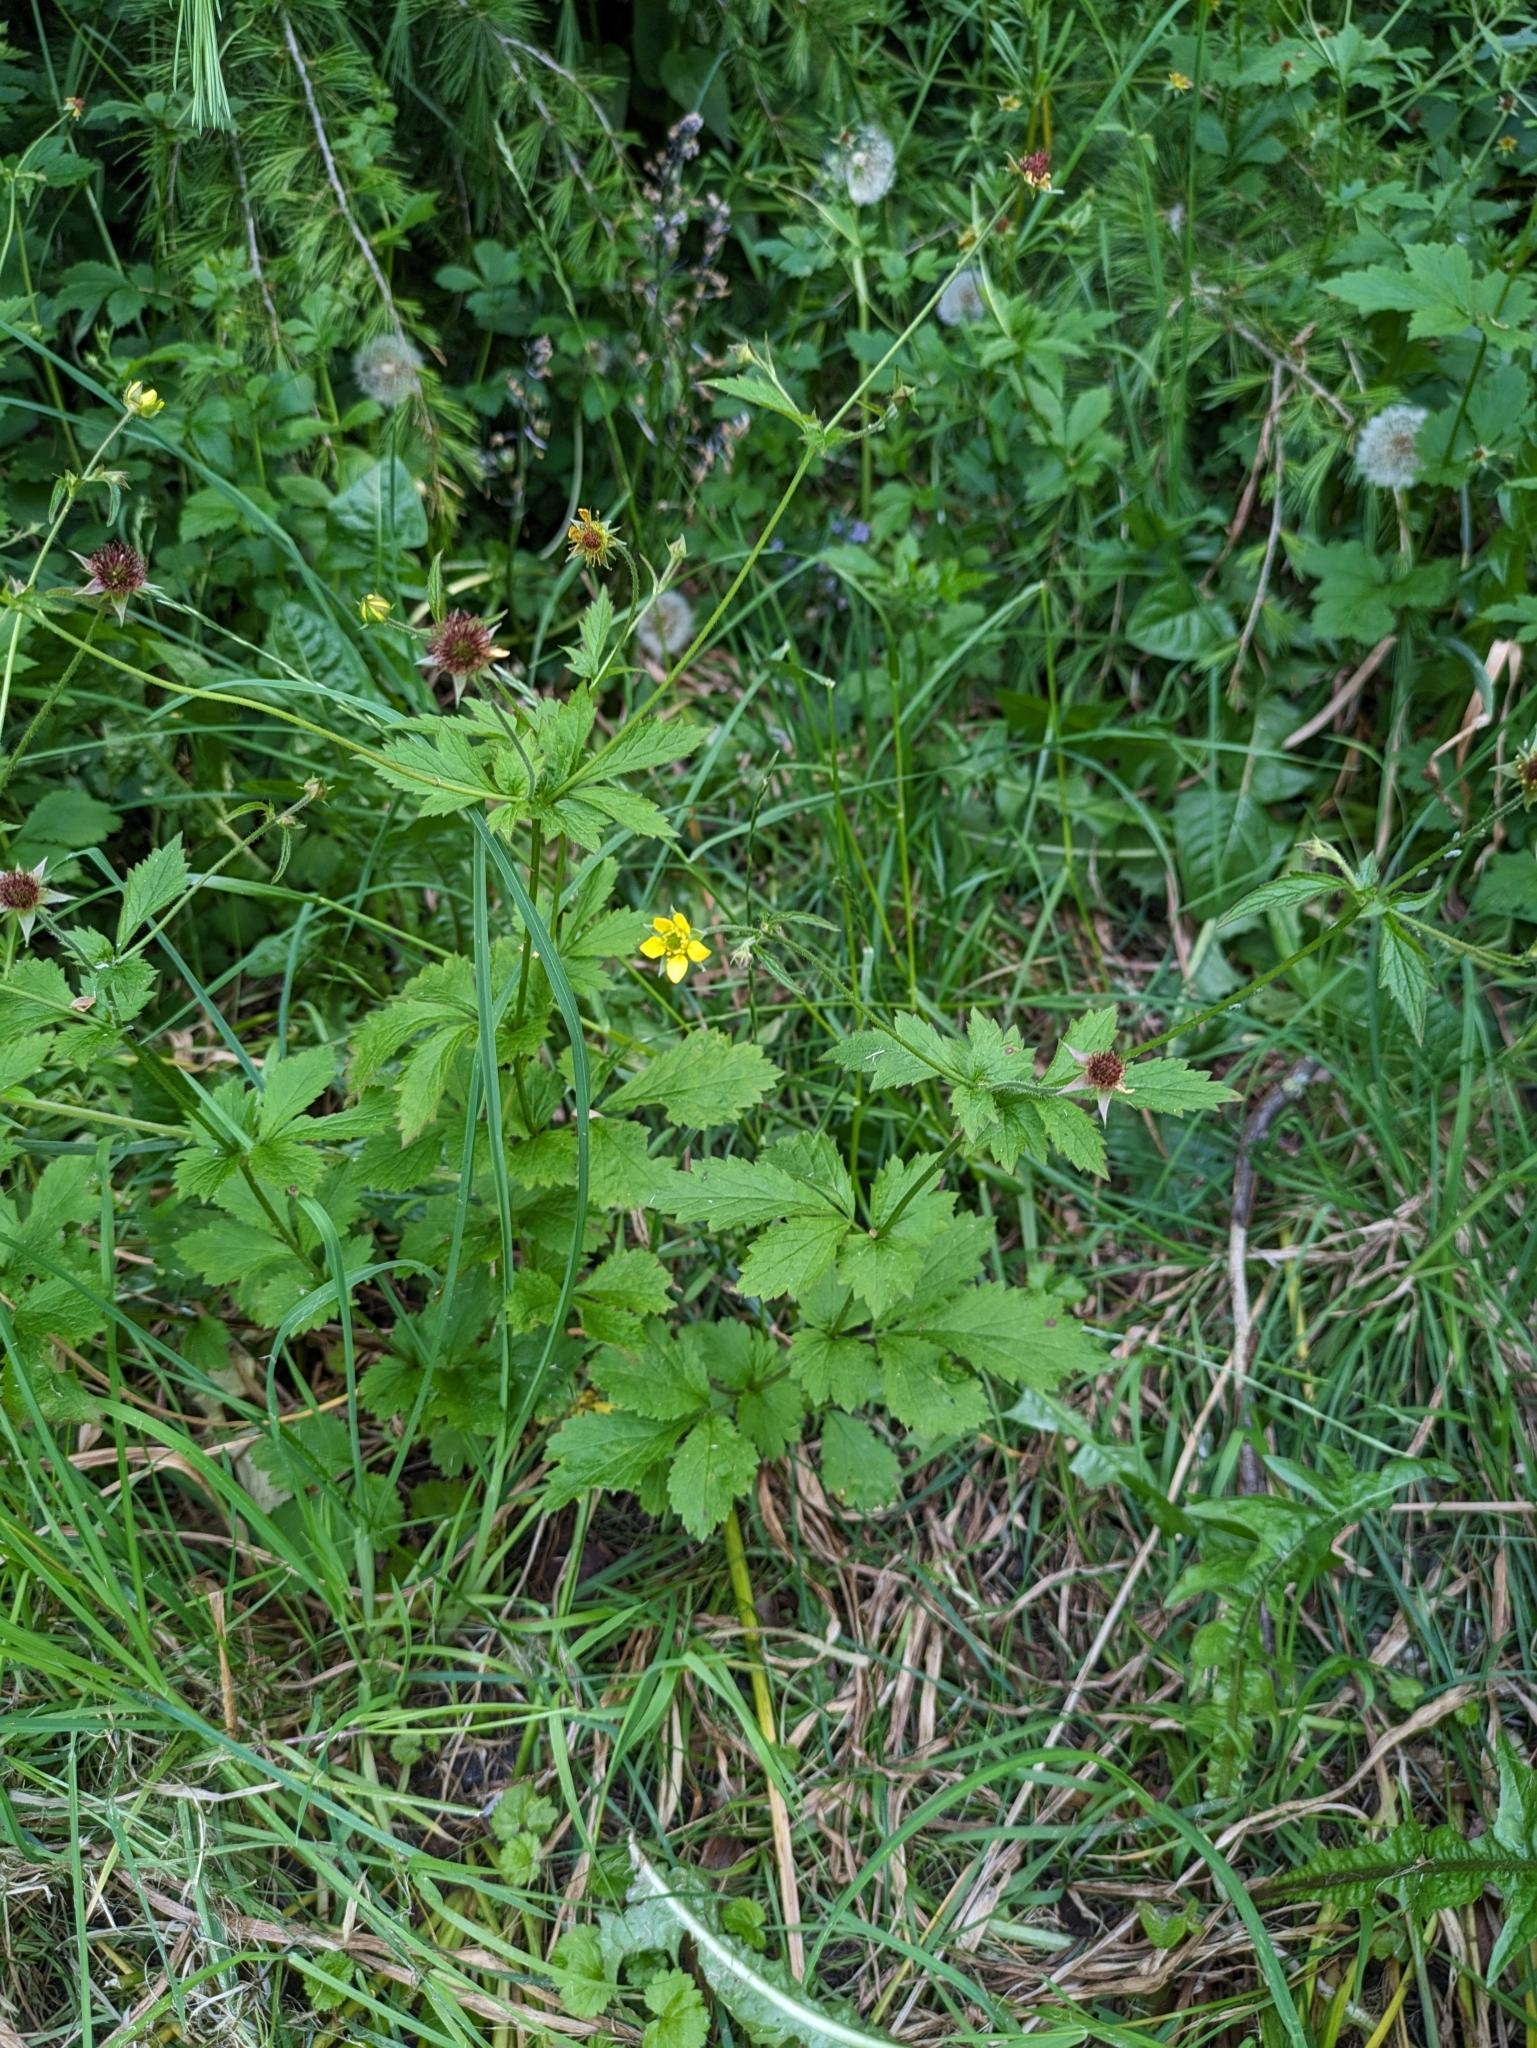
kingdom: Plantae
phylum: Tracheophyta
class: Magnoliopsida
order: Rosales
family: Rosaceae
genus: Geum
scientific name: Geum urbanum
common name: Wood avens
